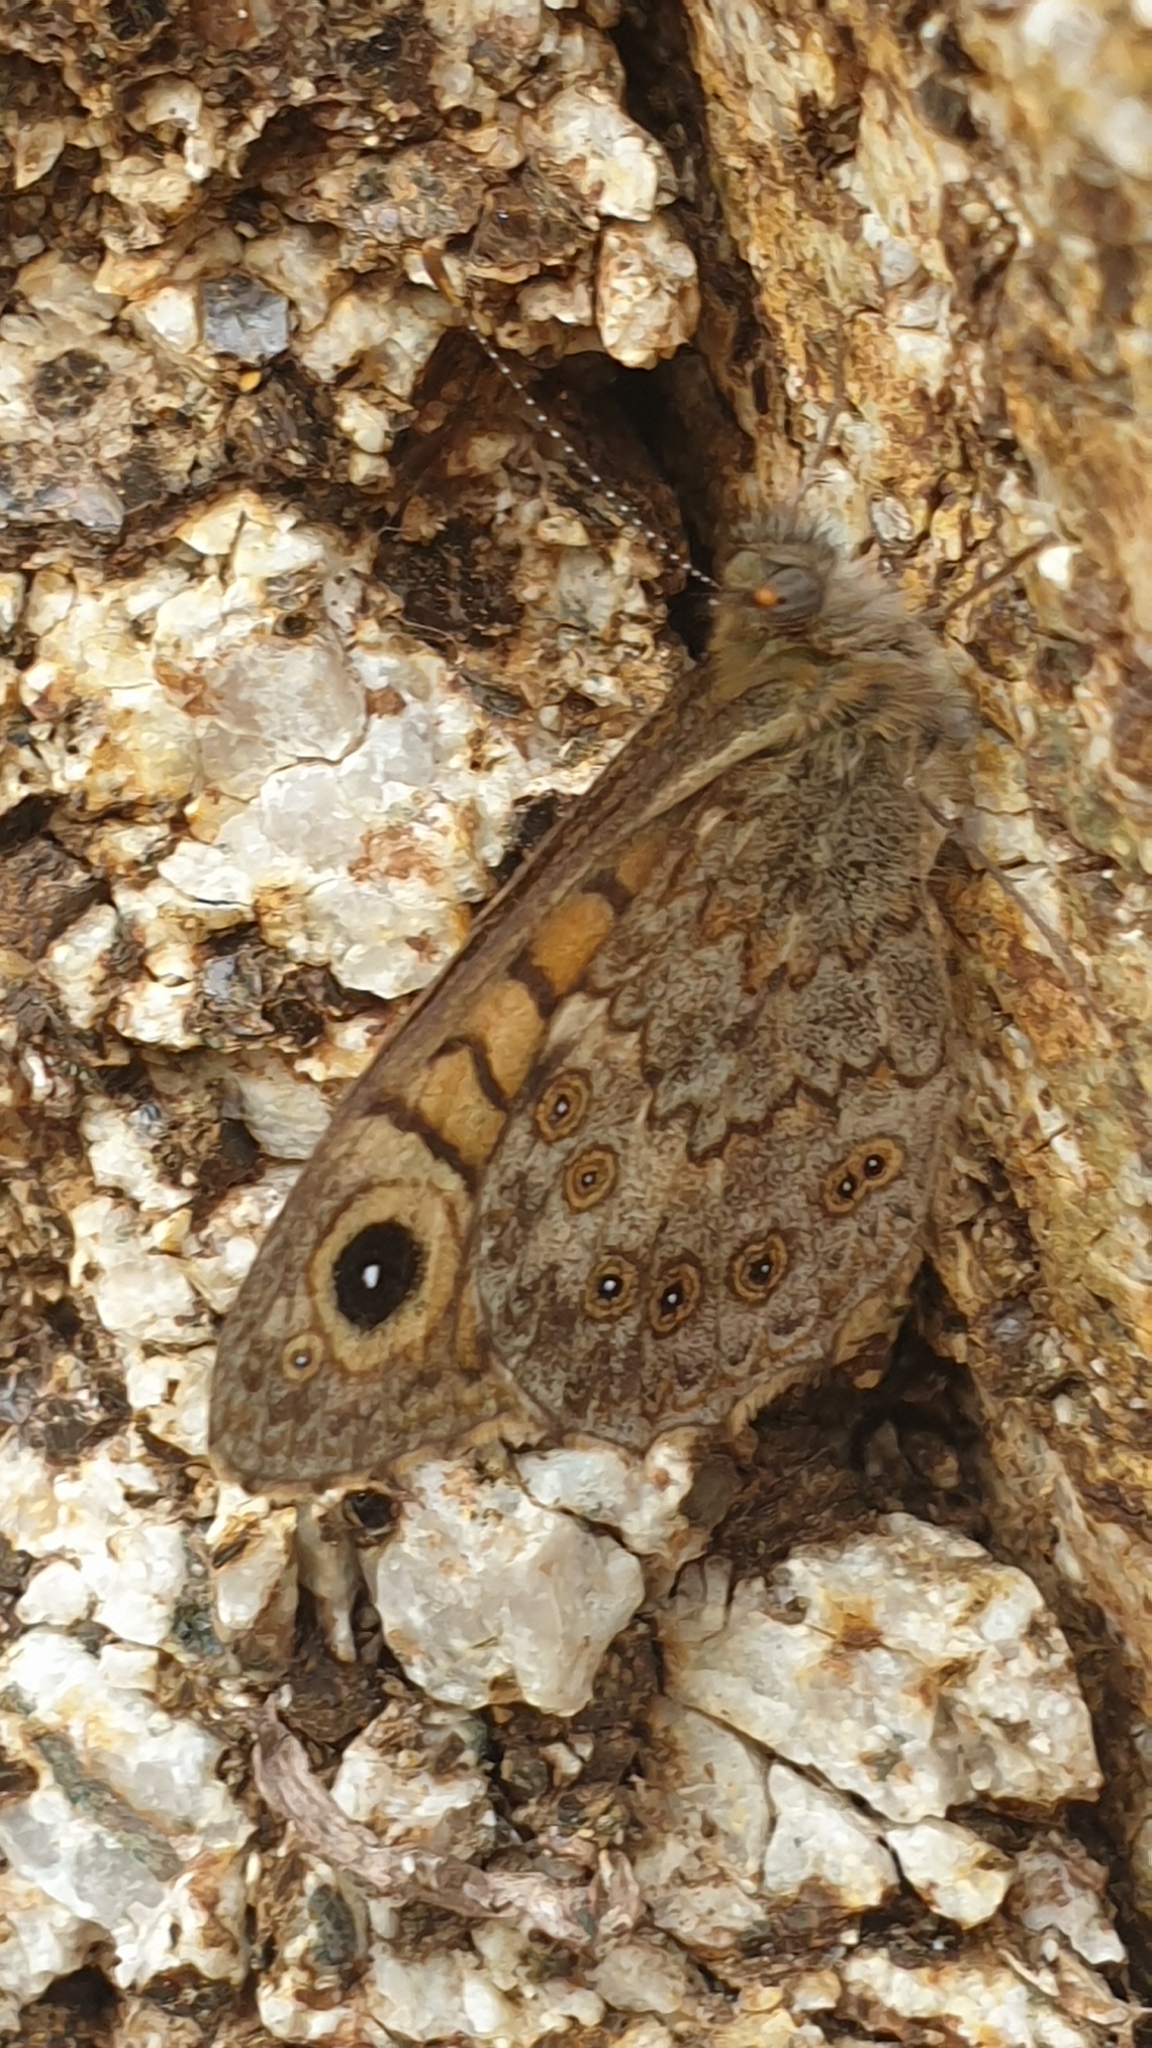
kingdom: Animalia
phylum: Arthropoda
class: Insecta
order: Lepidoptera
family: Nymphalidae
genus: Pararge
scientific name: Pararge Lasiommata megera
